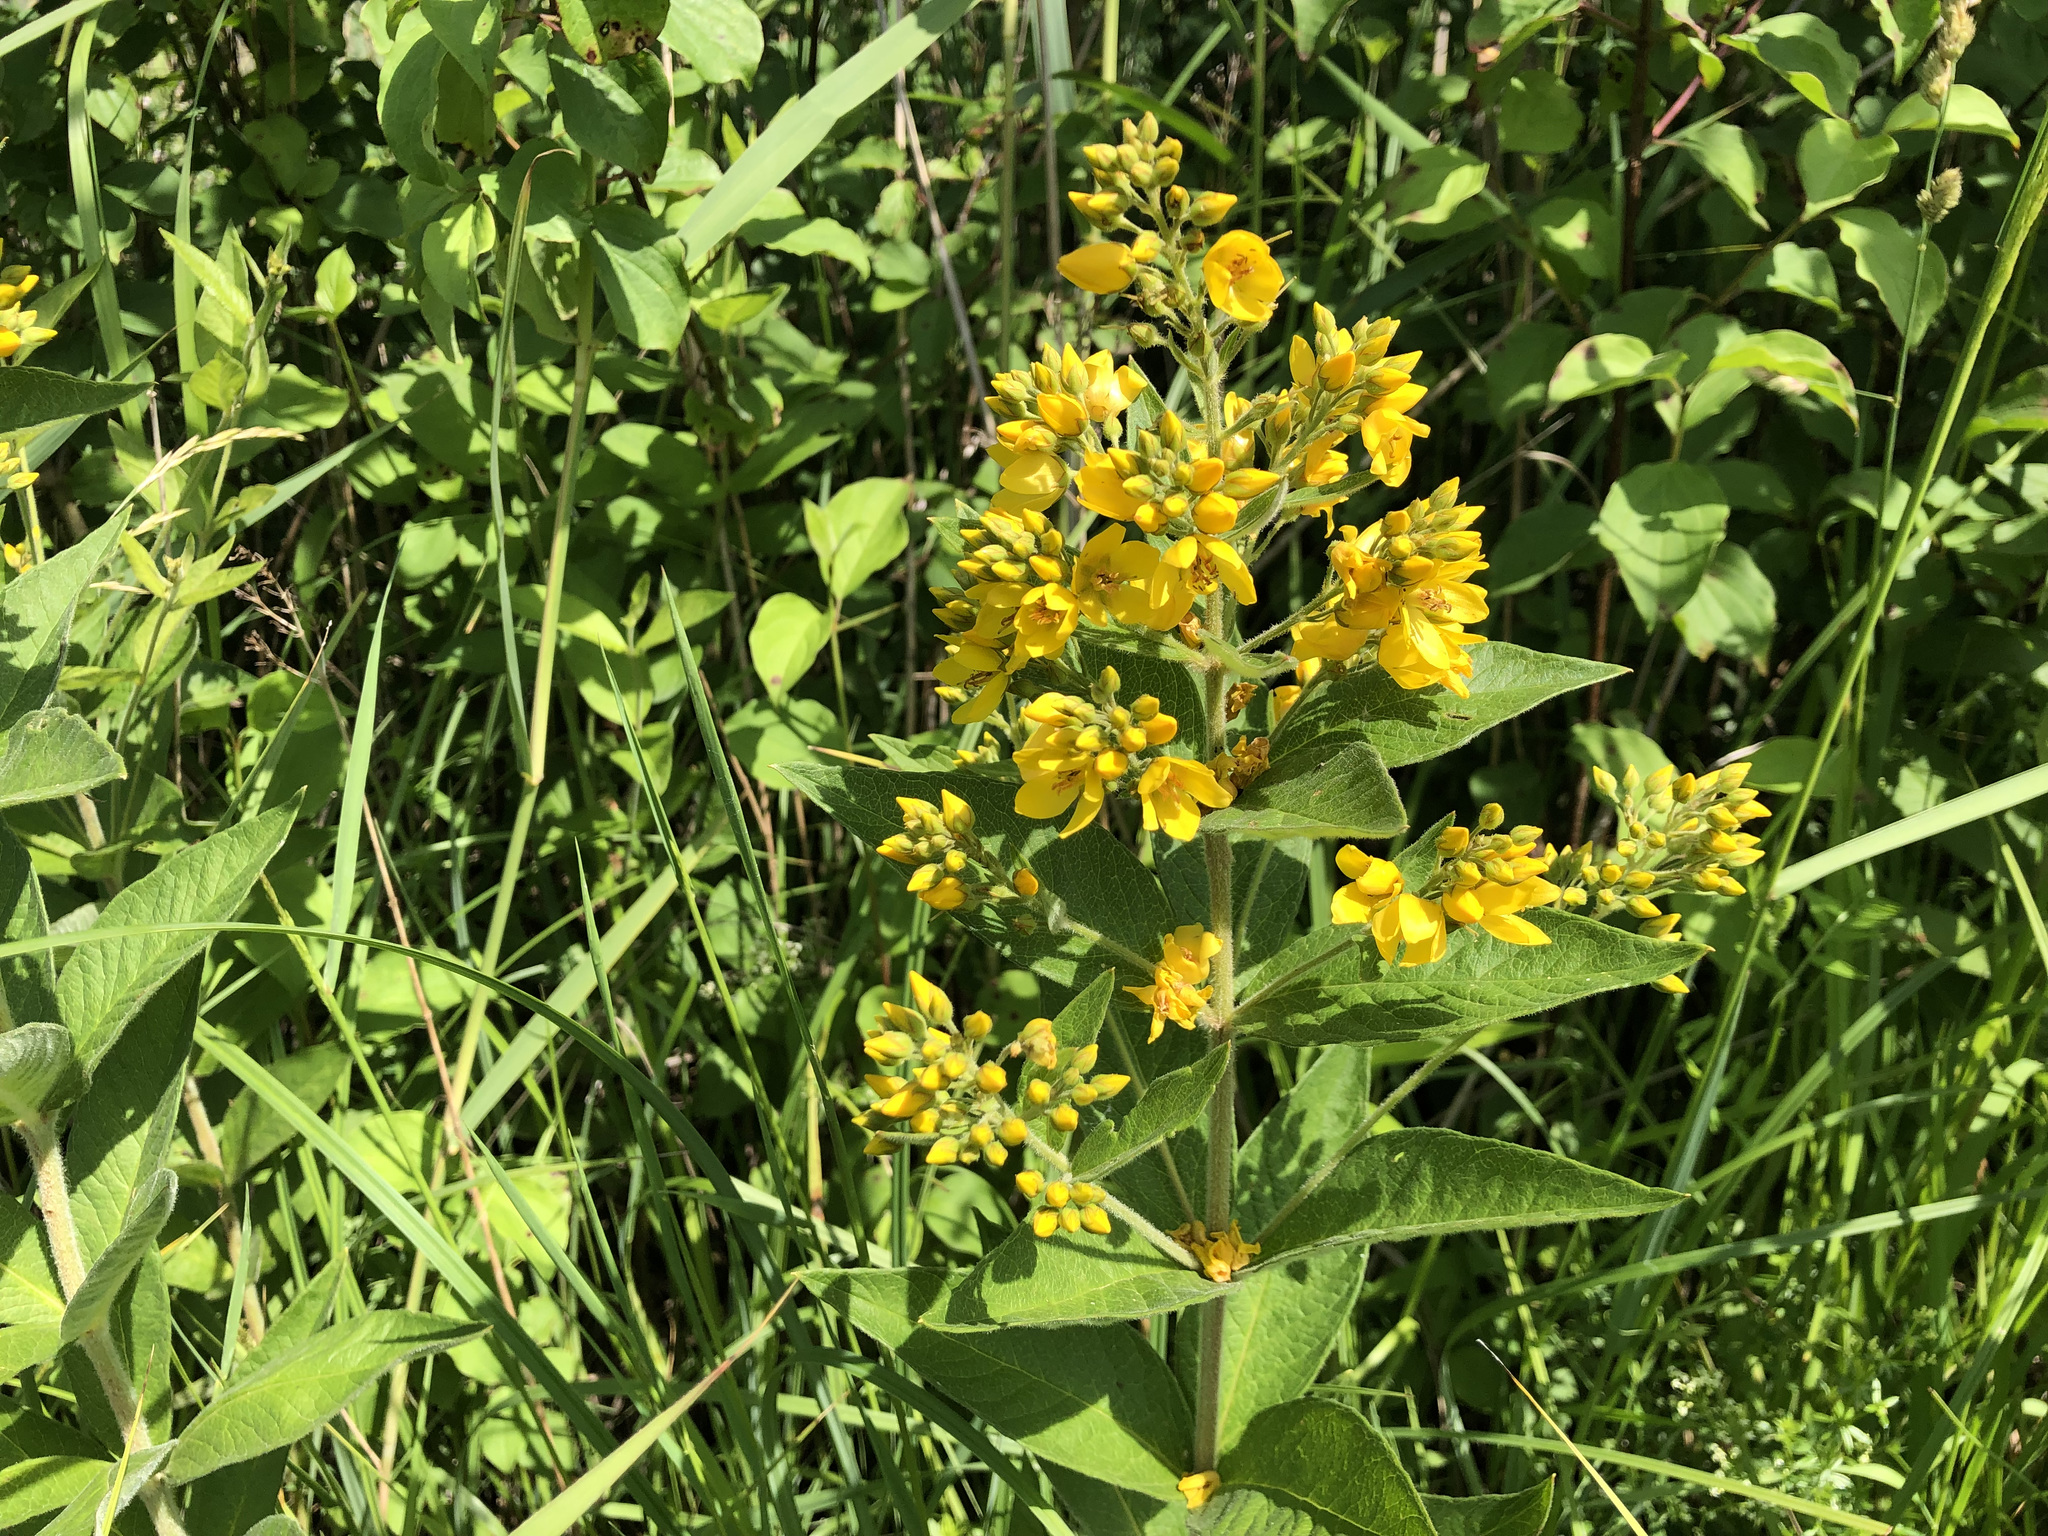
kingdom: Plantae
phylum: Tracheophyta
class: Magnoliopsida
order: Ericales
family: Primulaceae
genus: Lysimachia
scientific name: Lysimachia vulgaris
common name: Yellow loosestrife
